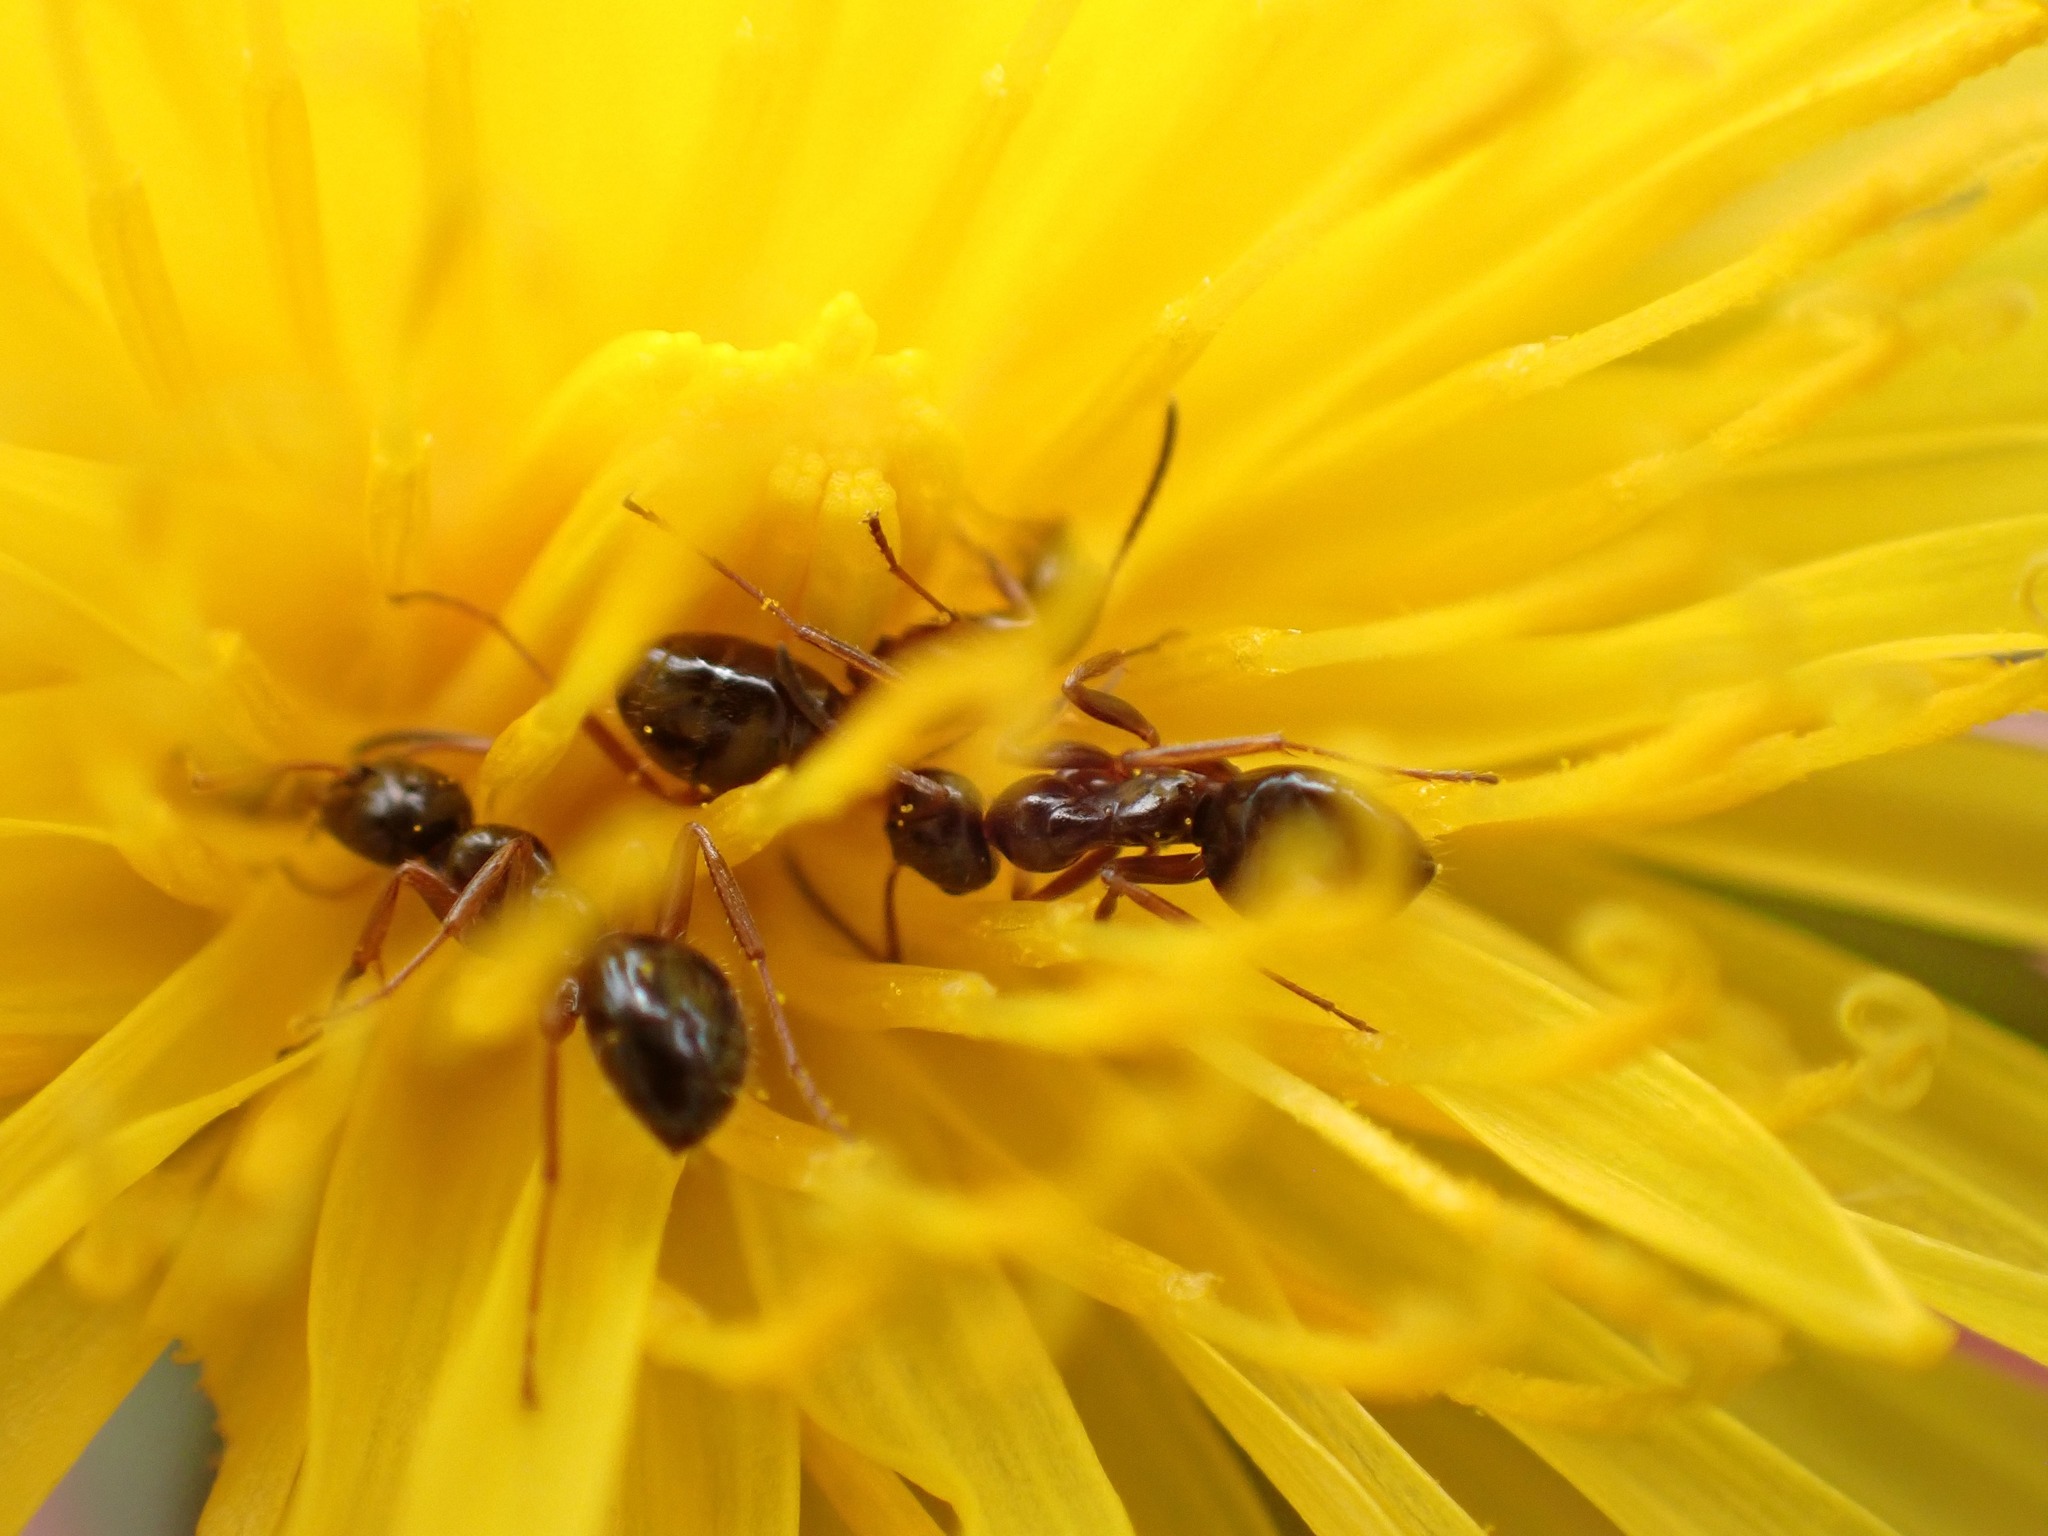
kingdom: Animalia
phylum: Arthropoda
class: Insecta
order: Hymenoptera
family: Formicidae
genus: Formica
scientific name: Formica neogagates
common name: New world black ant
